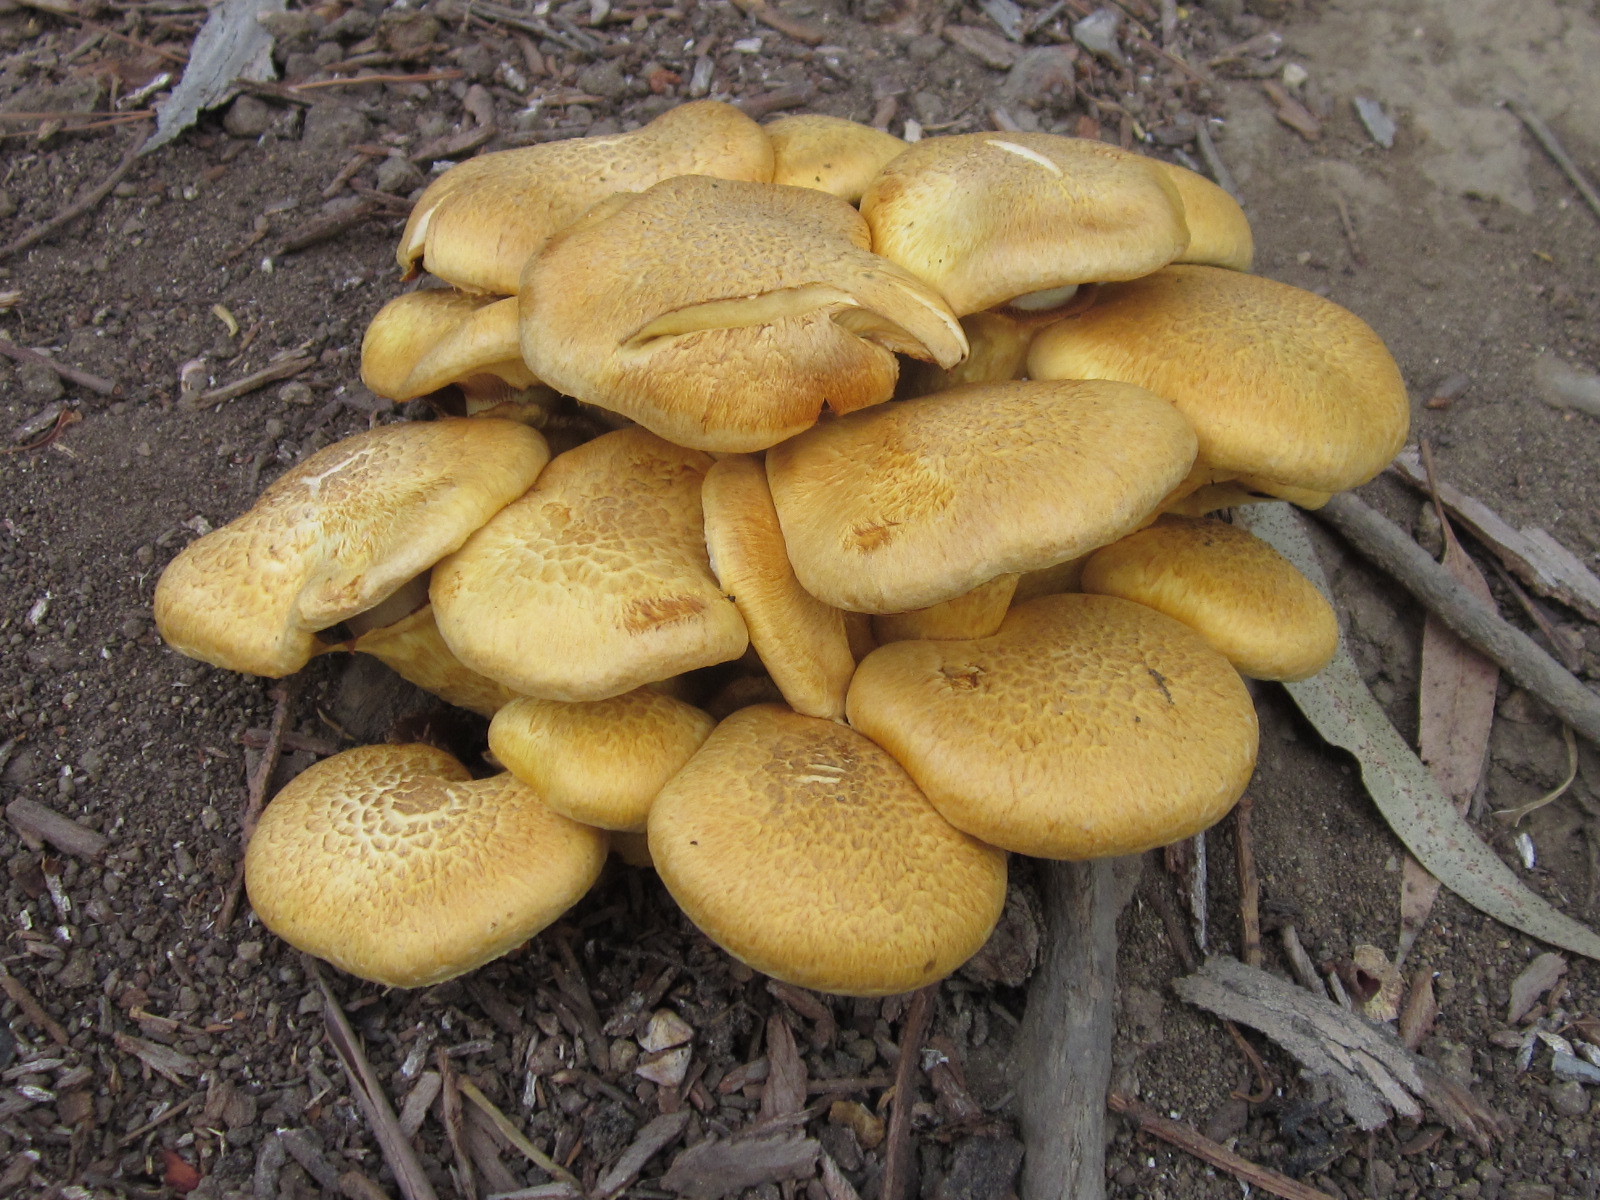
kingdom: Fungi
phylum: Basidiomycota
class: Agaricomycetes
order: Agaricales
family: Hymenogastraceae
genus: Gymnopilus
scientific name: Gymnopilus junonius
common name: Spectacular rustgill
